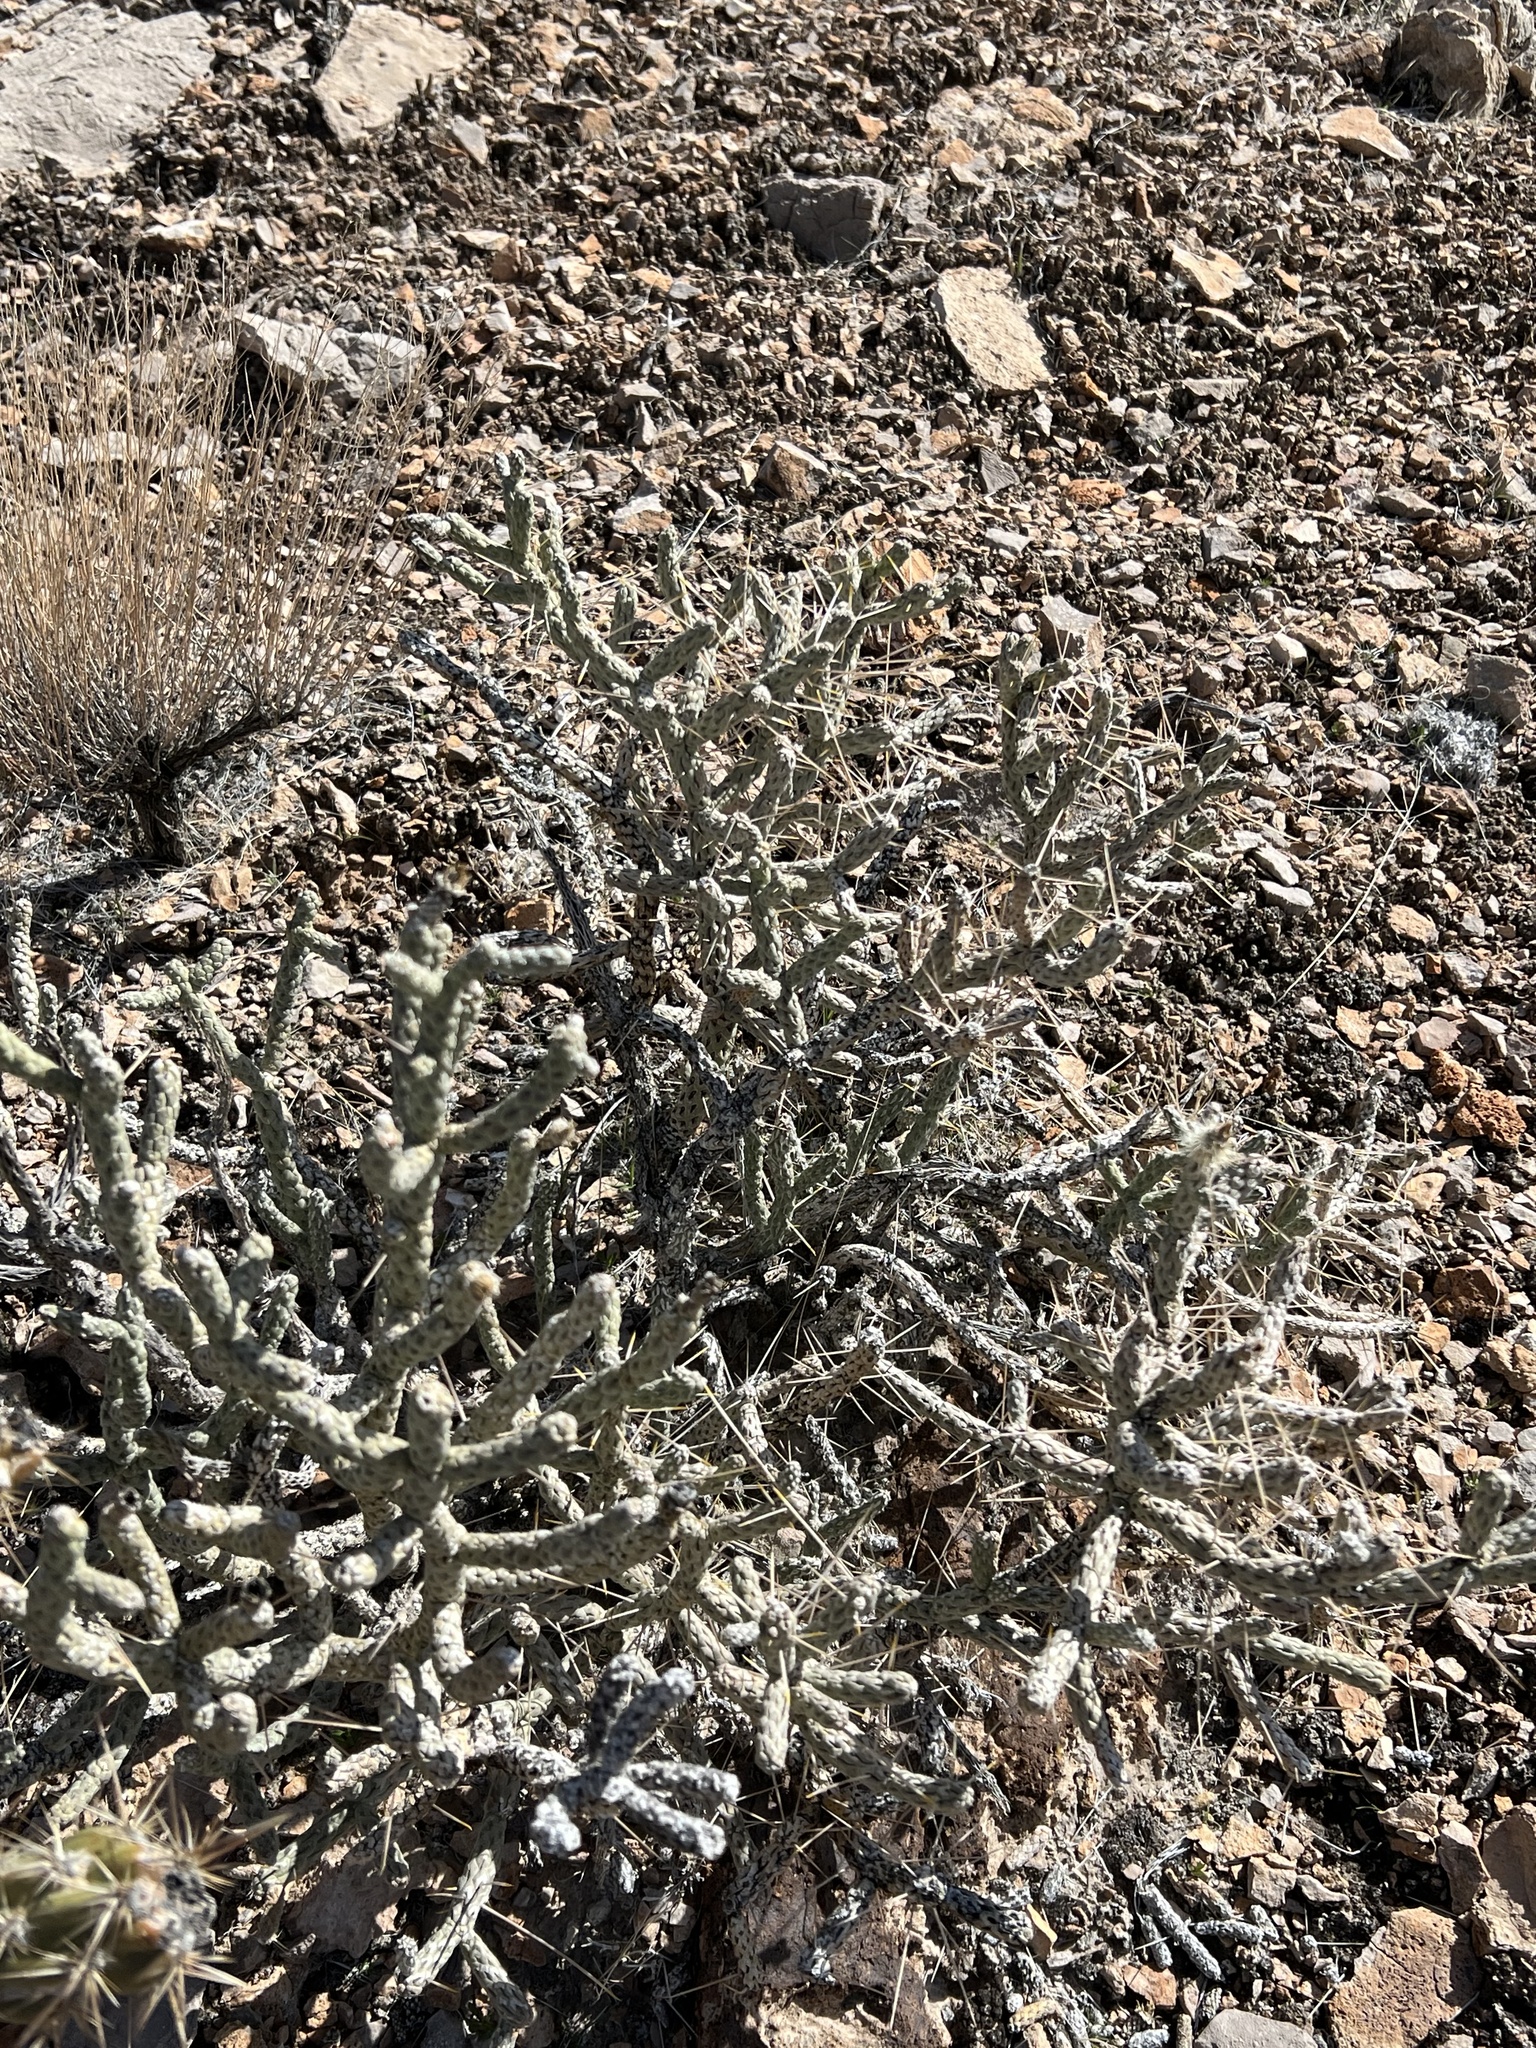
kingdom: Plantae
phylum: Tracheophyta
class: Magnoliopsida
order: Caryophyllales
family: Cactaceae
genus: Cylindropuntia
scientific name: Cylindropuntia ramosissima
